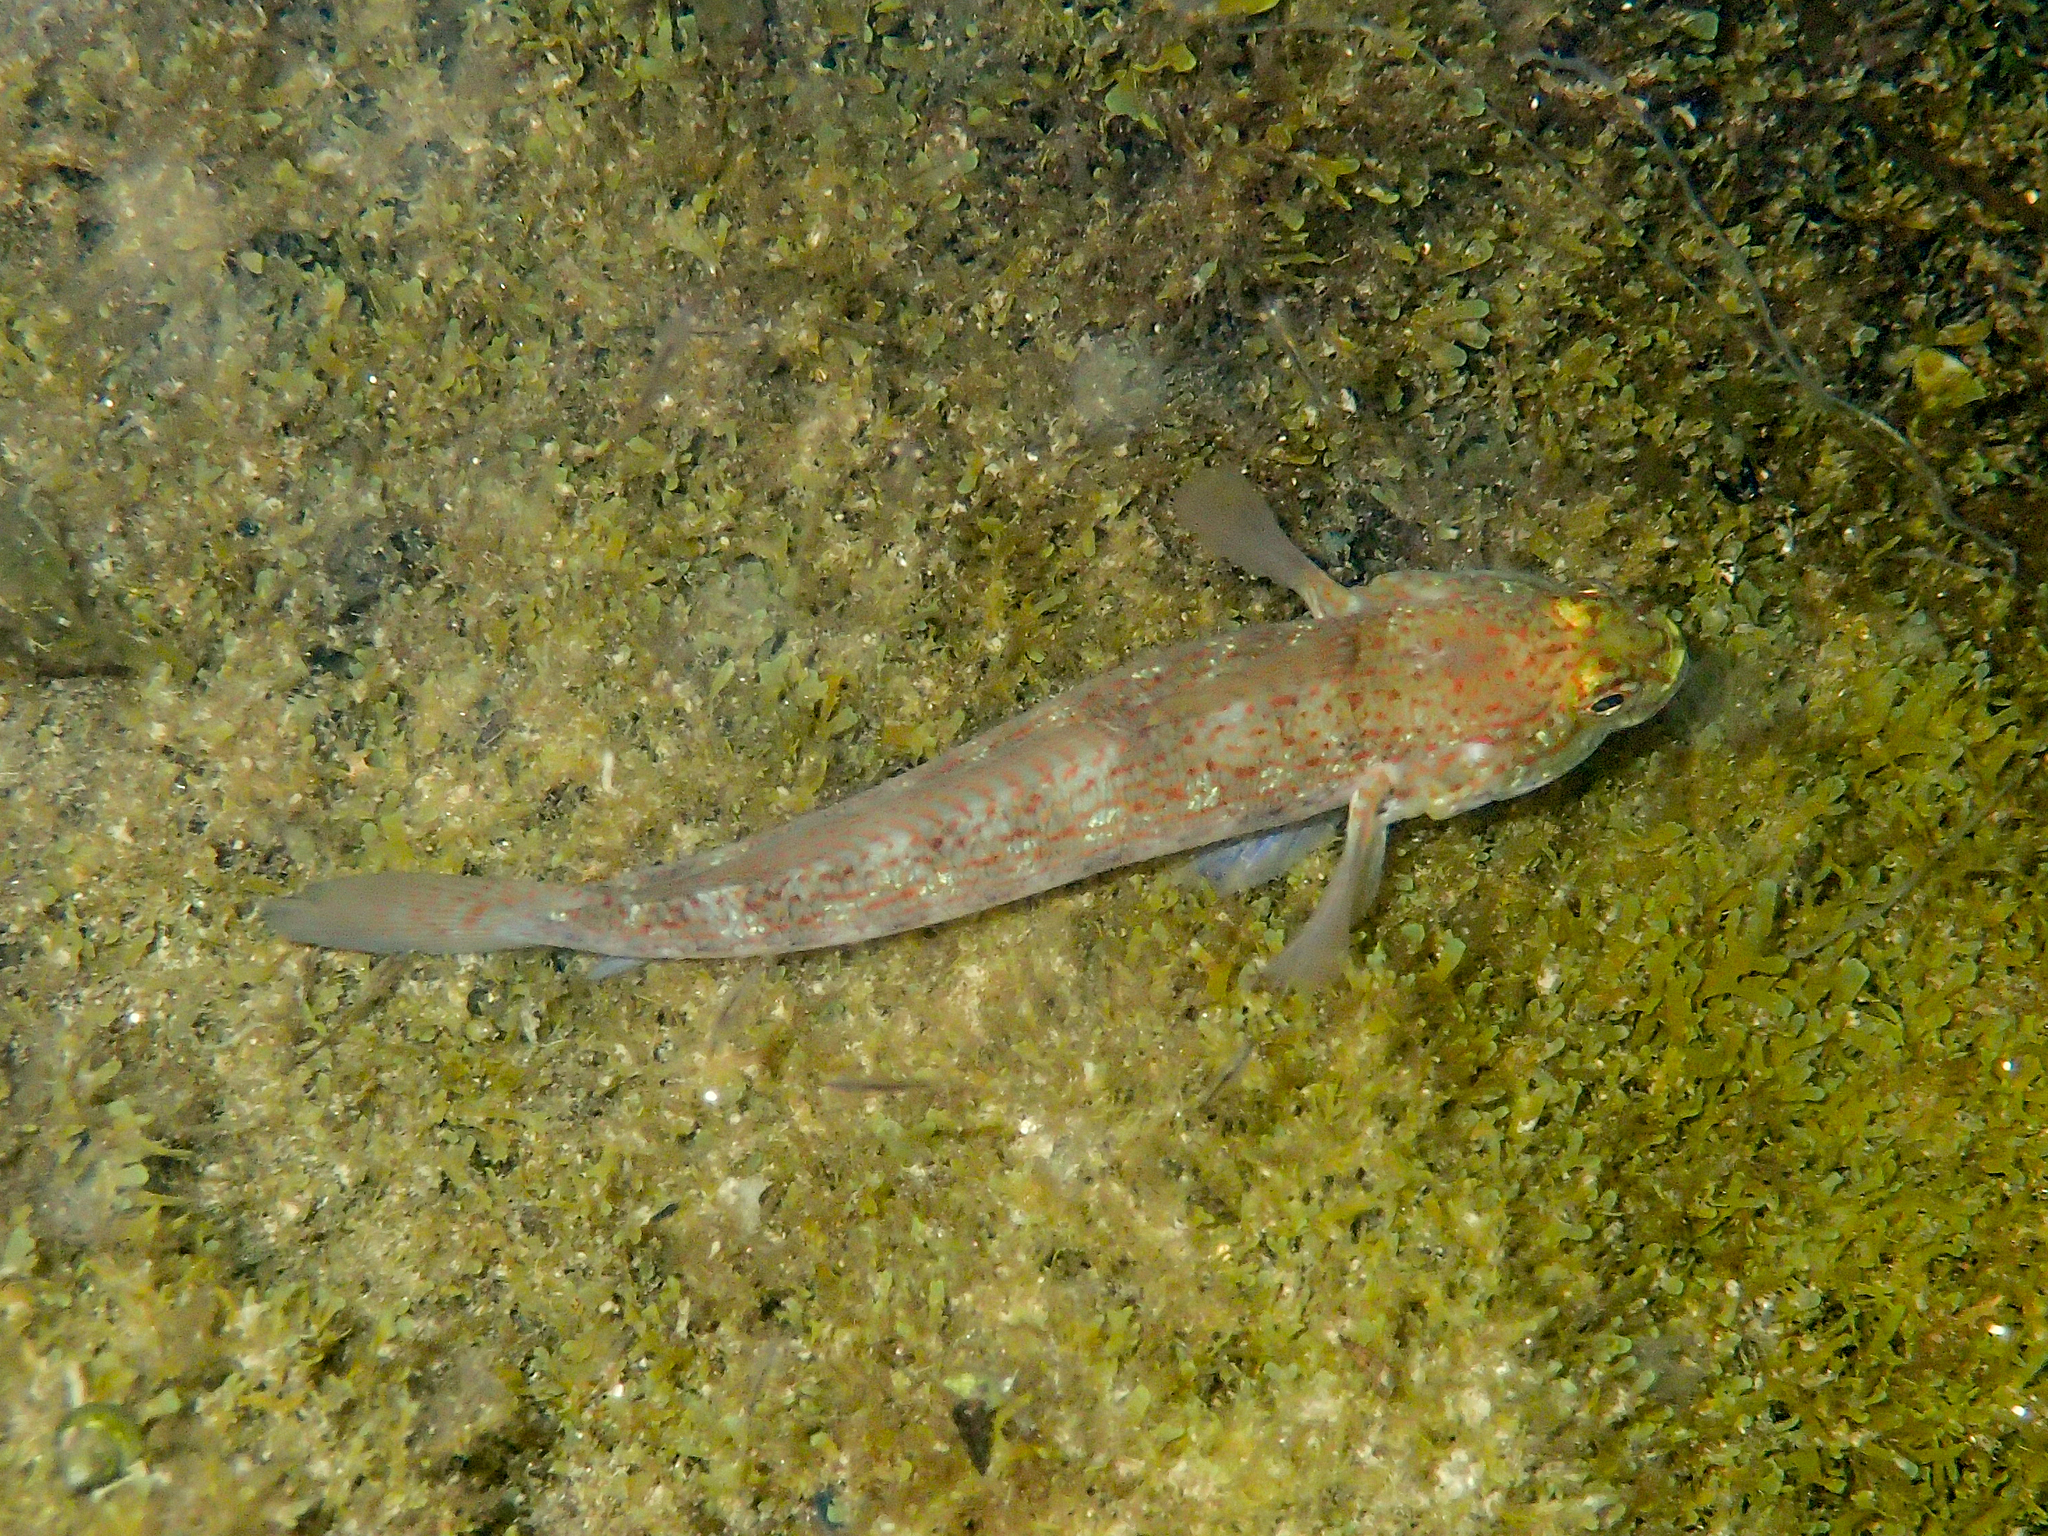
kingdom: Animalia
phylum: Chordata
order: Perciformes
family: Gobiidae
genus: Gobius
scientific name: Gobius xanthocephalus
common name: Golden goby
